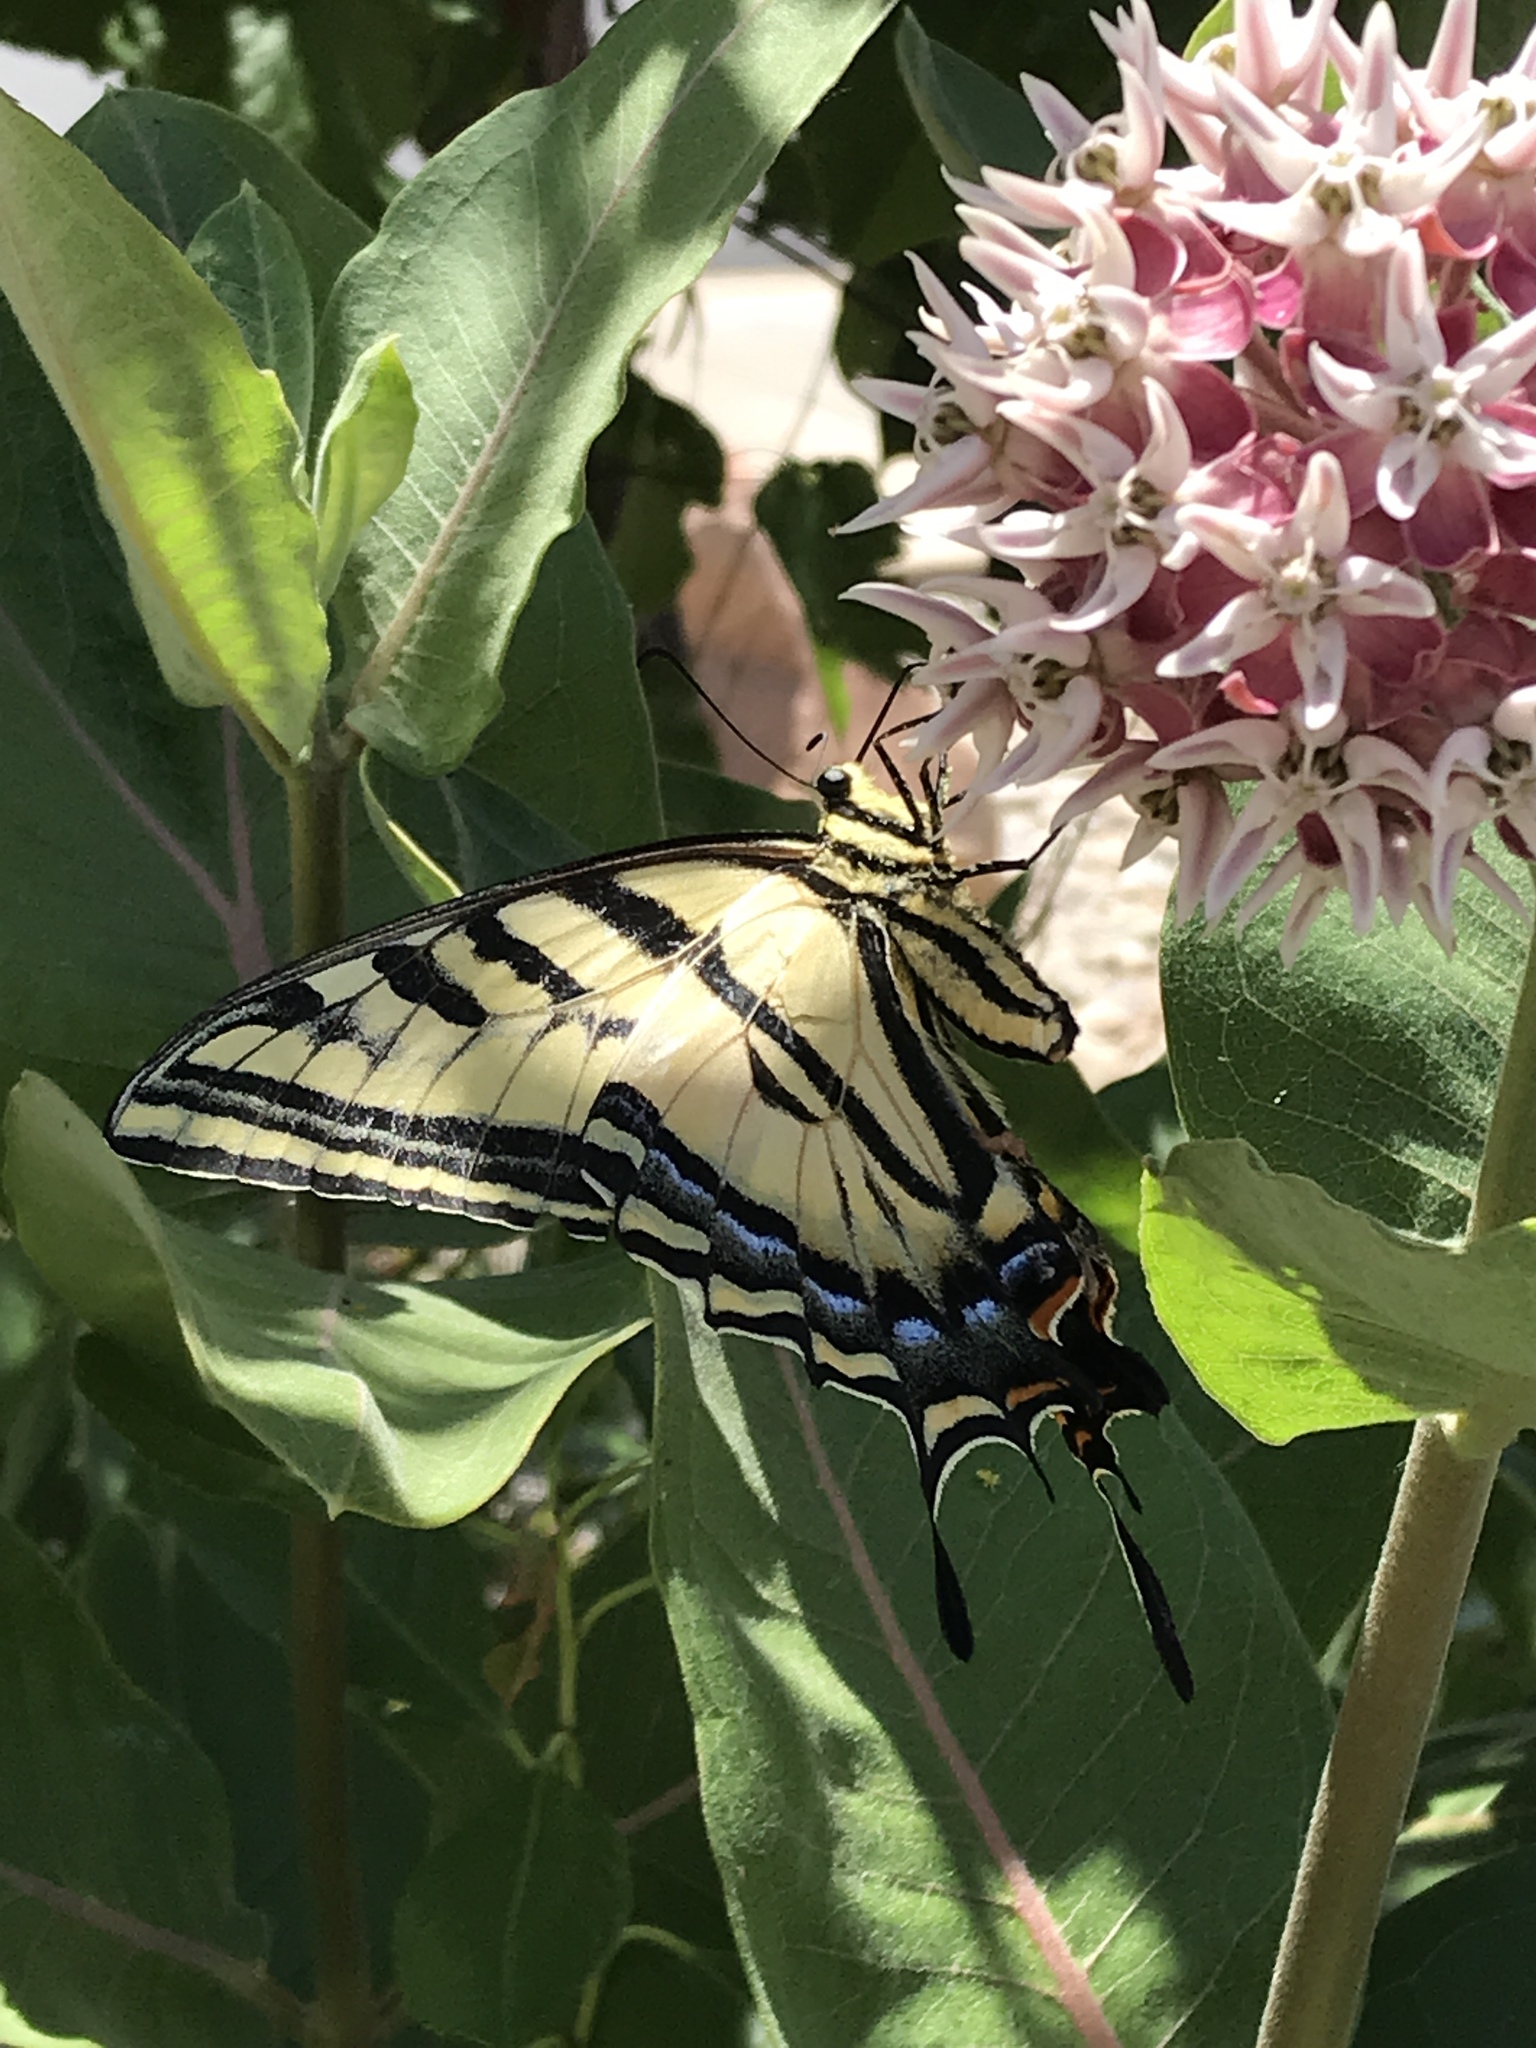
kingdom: Animalia
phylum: Arthropoda
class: Insecta
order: Lepidoptera
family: Papilionidae
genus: Papilio
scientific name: Papilio multicaudata
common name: Two-tailed tiger swallowtail
